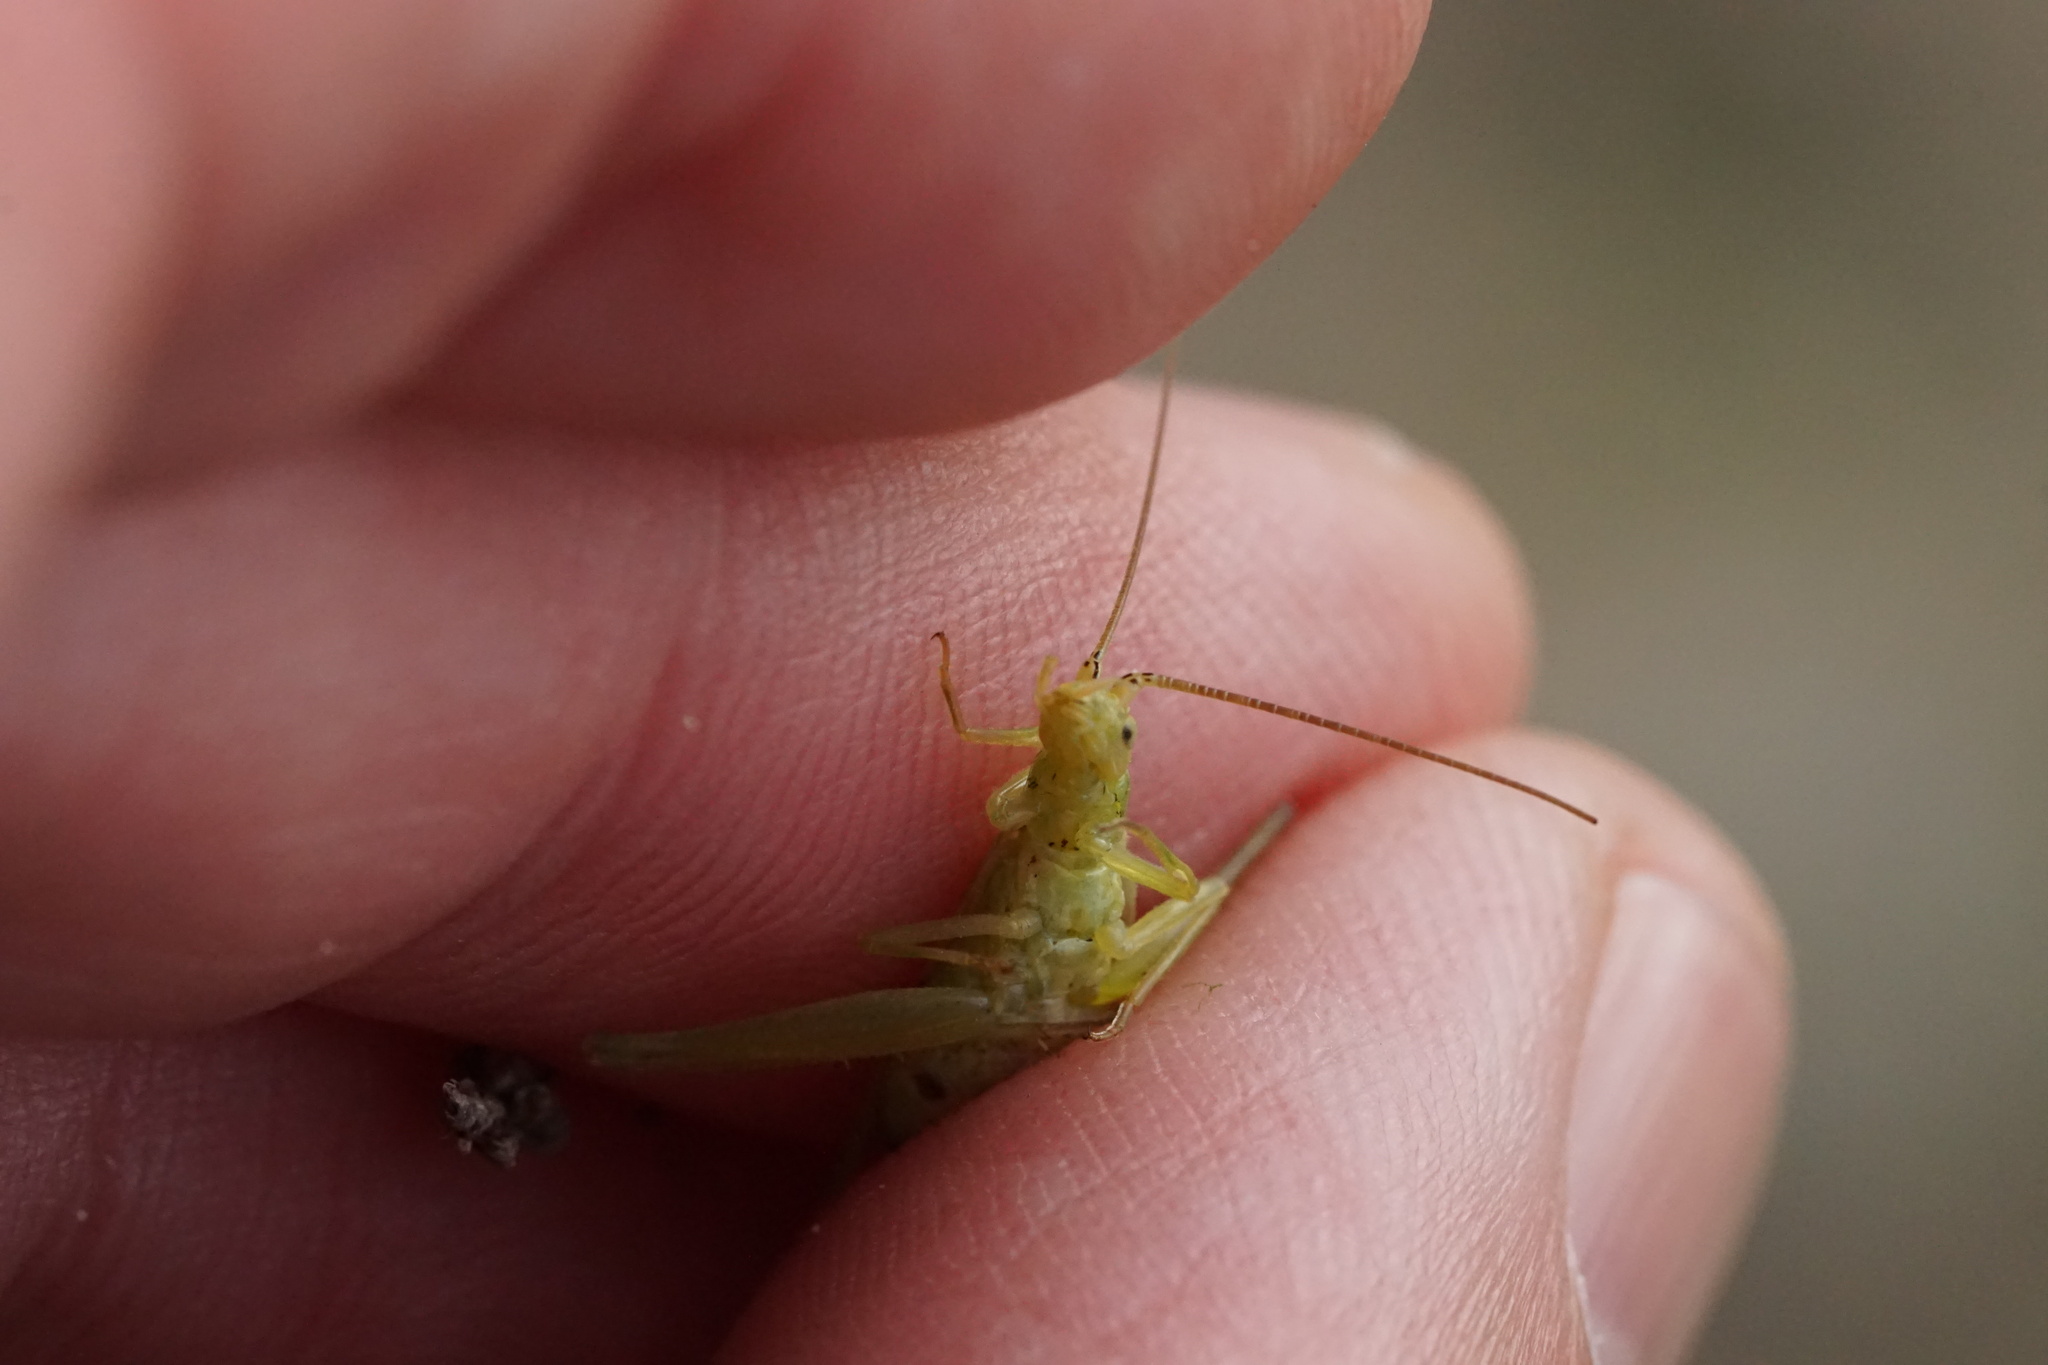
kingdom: Animalia
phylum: Arthropoda
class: Insecta
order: Orthoptera
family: Gryllidae
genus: Oecanthus
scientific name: Oecanthus quadripunctatus
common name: Four-spotted tree cricket
